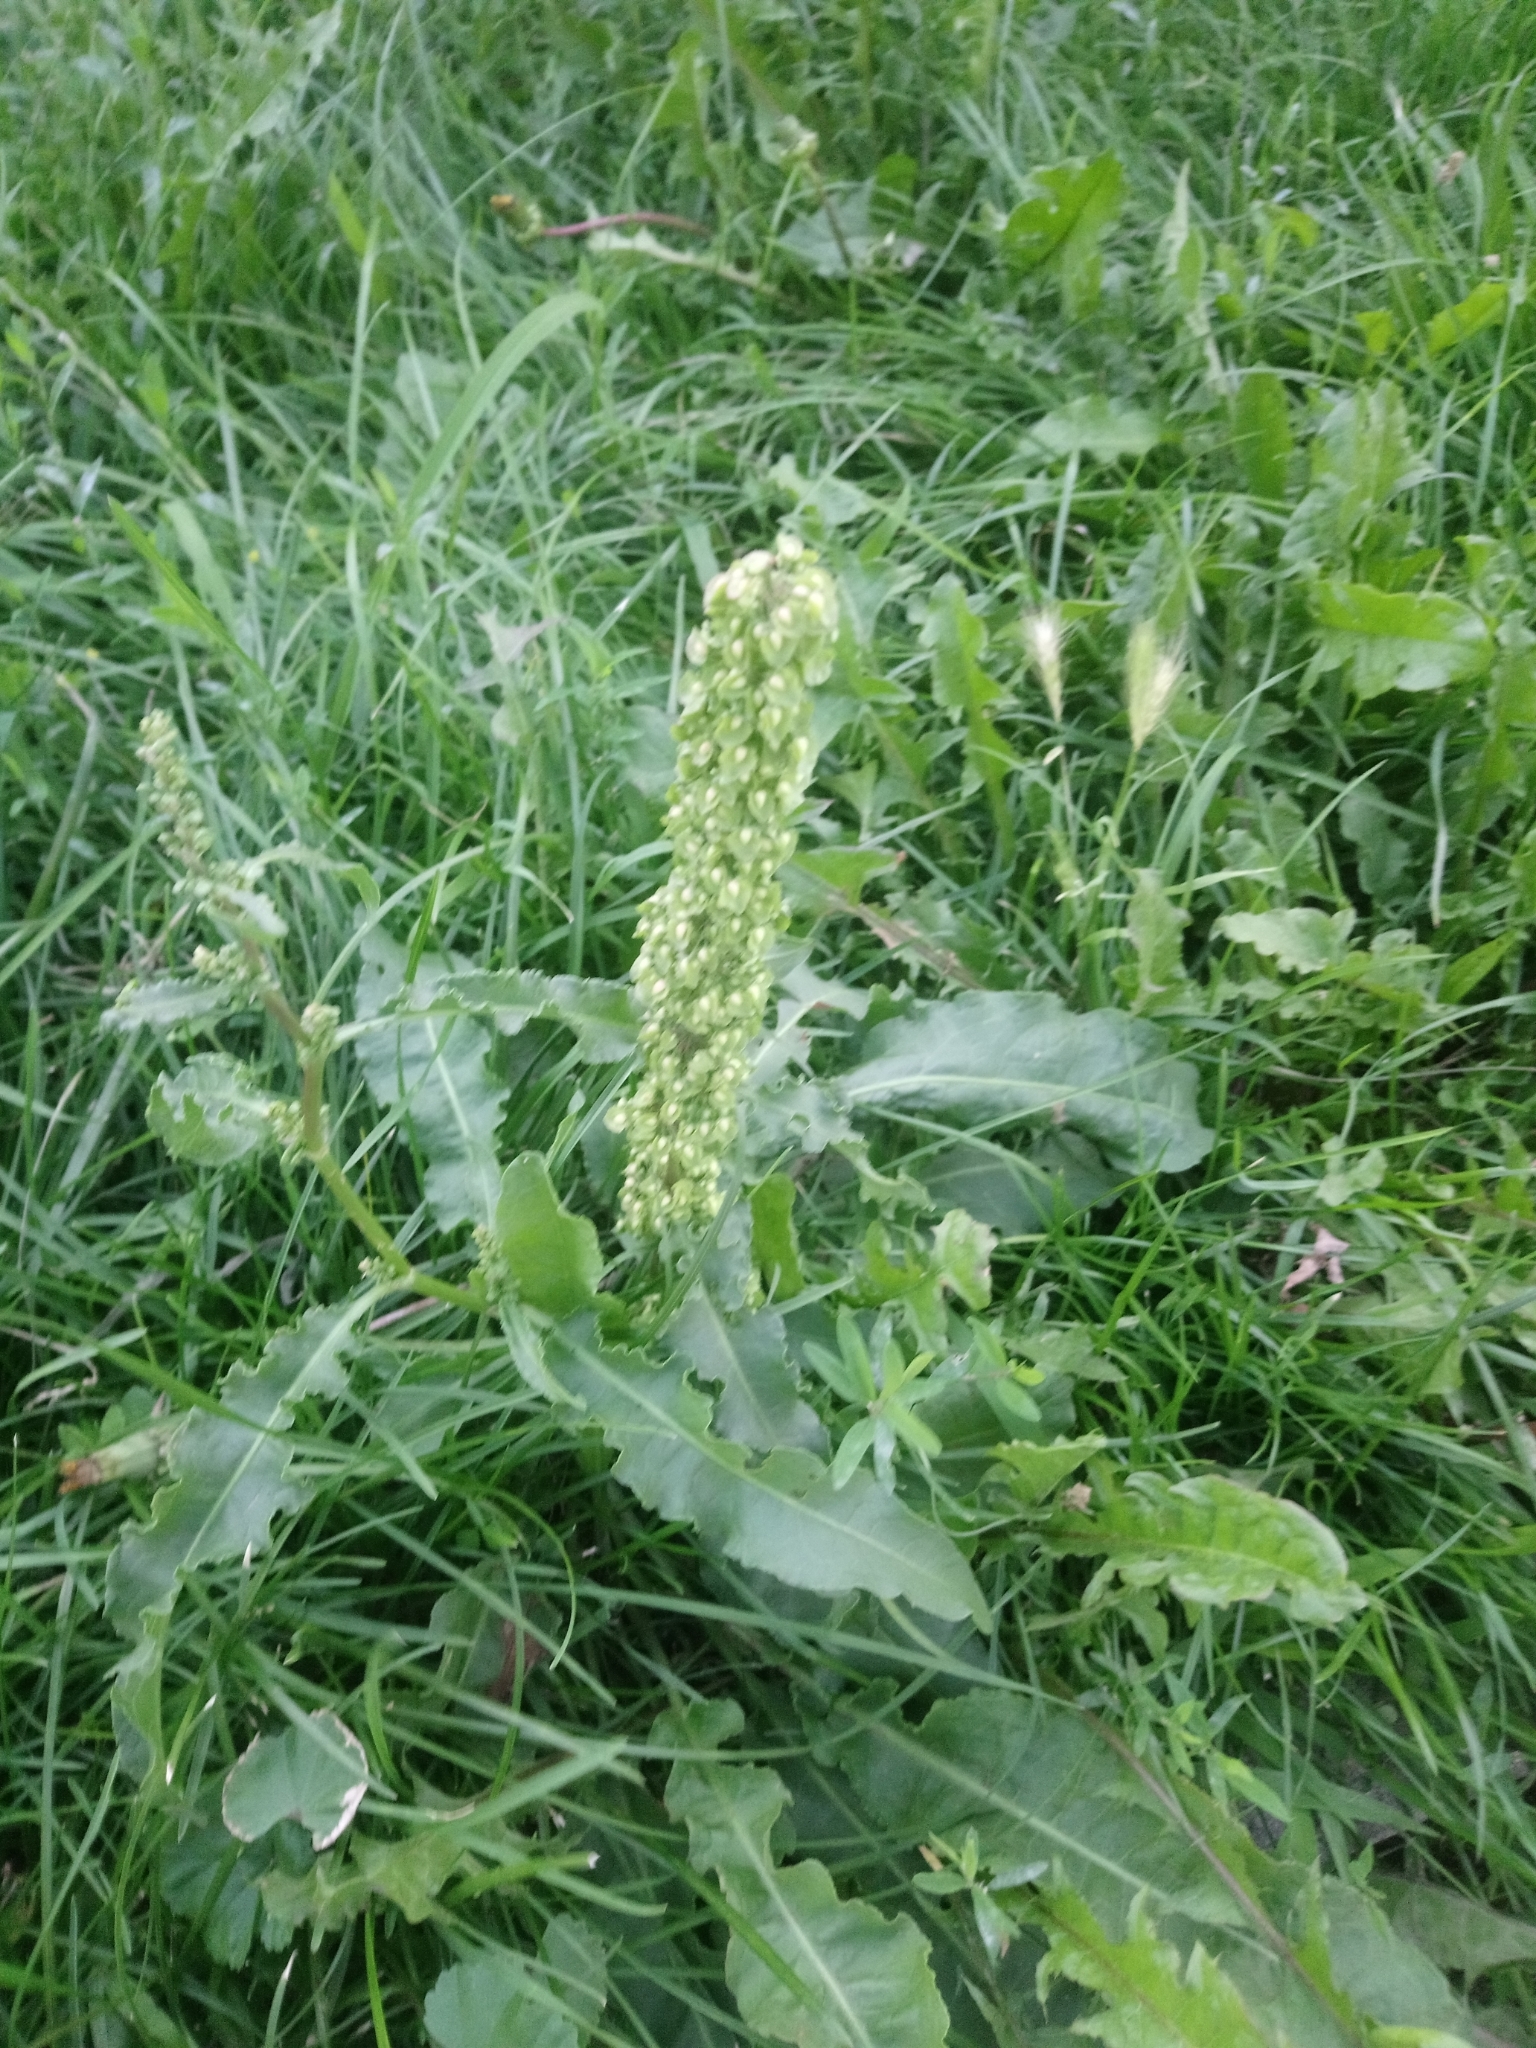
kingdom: Plantae
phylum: Tracheophyta
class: Magnoliopsida
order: Caryophyllales
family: Polygonaceae
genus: Rumex
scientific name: Rumex crispus
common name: Curled dock
